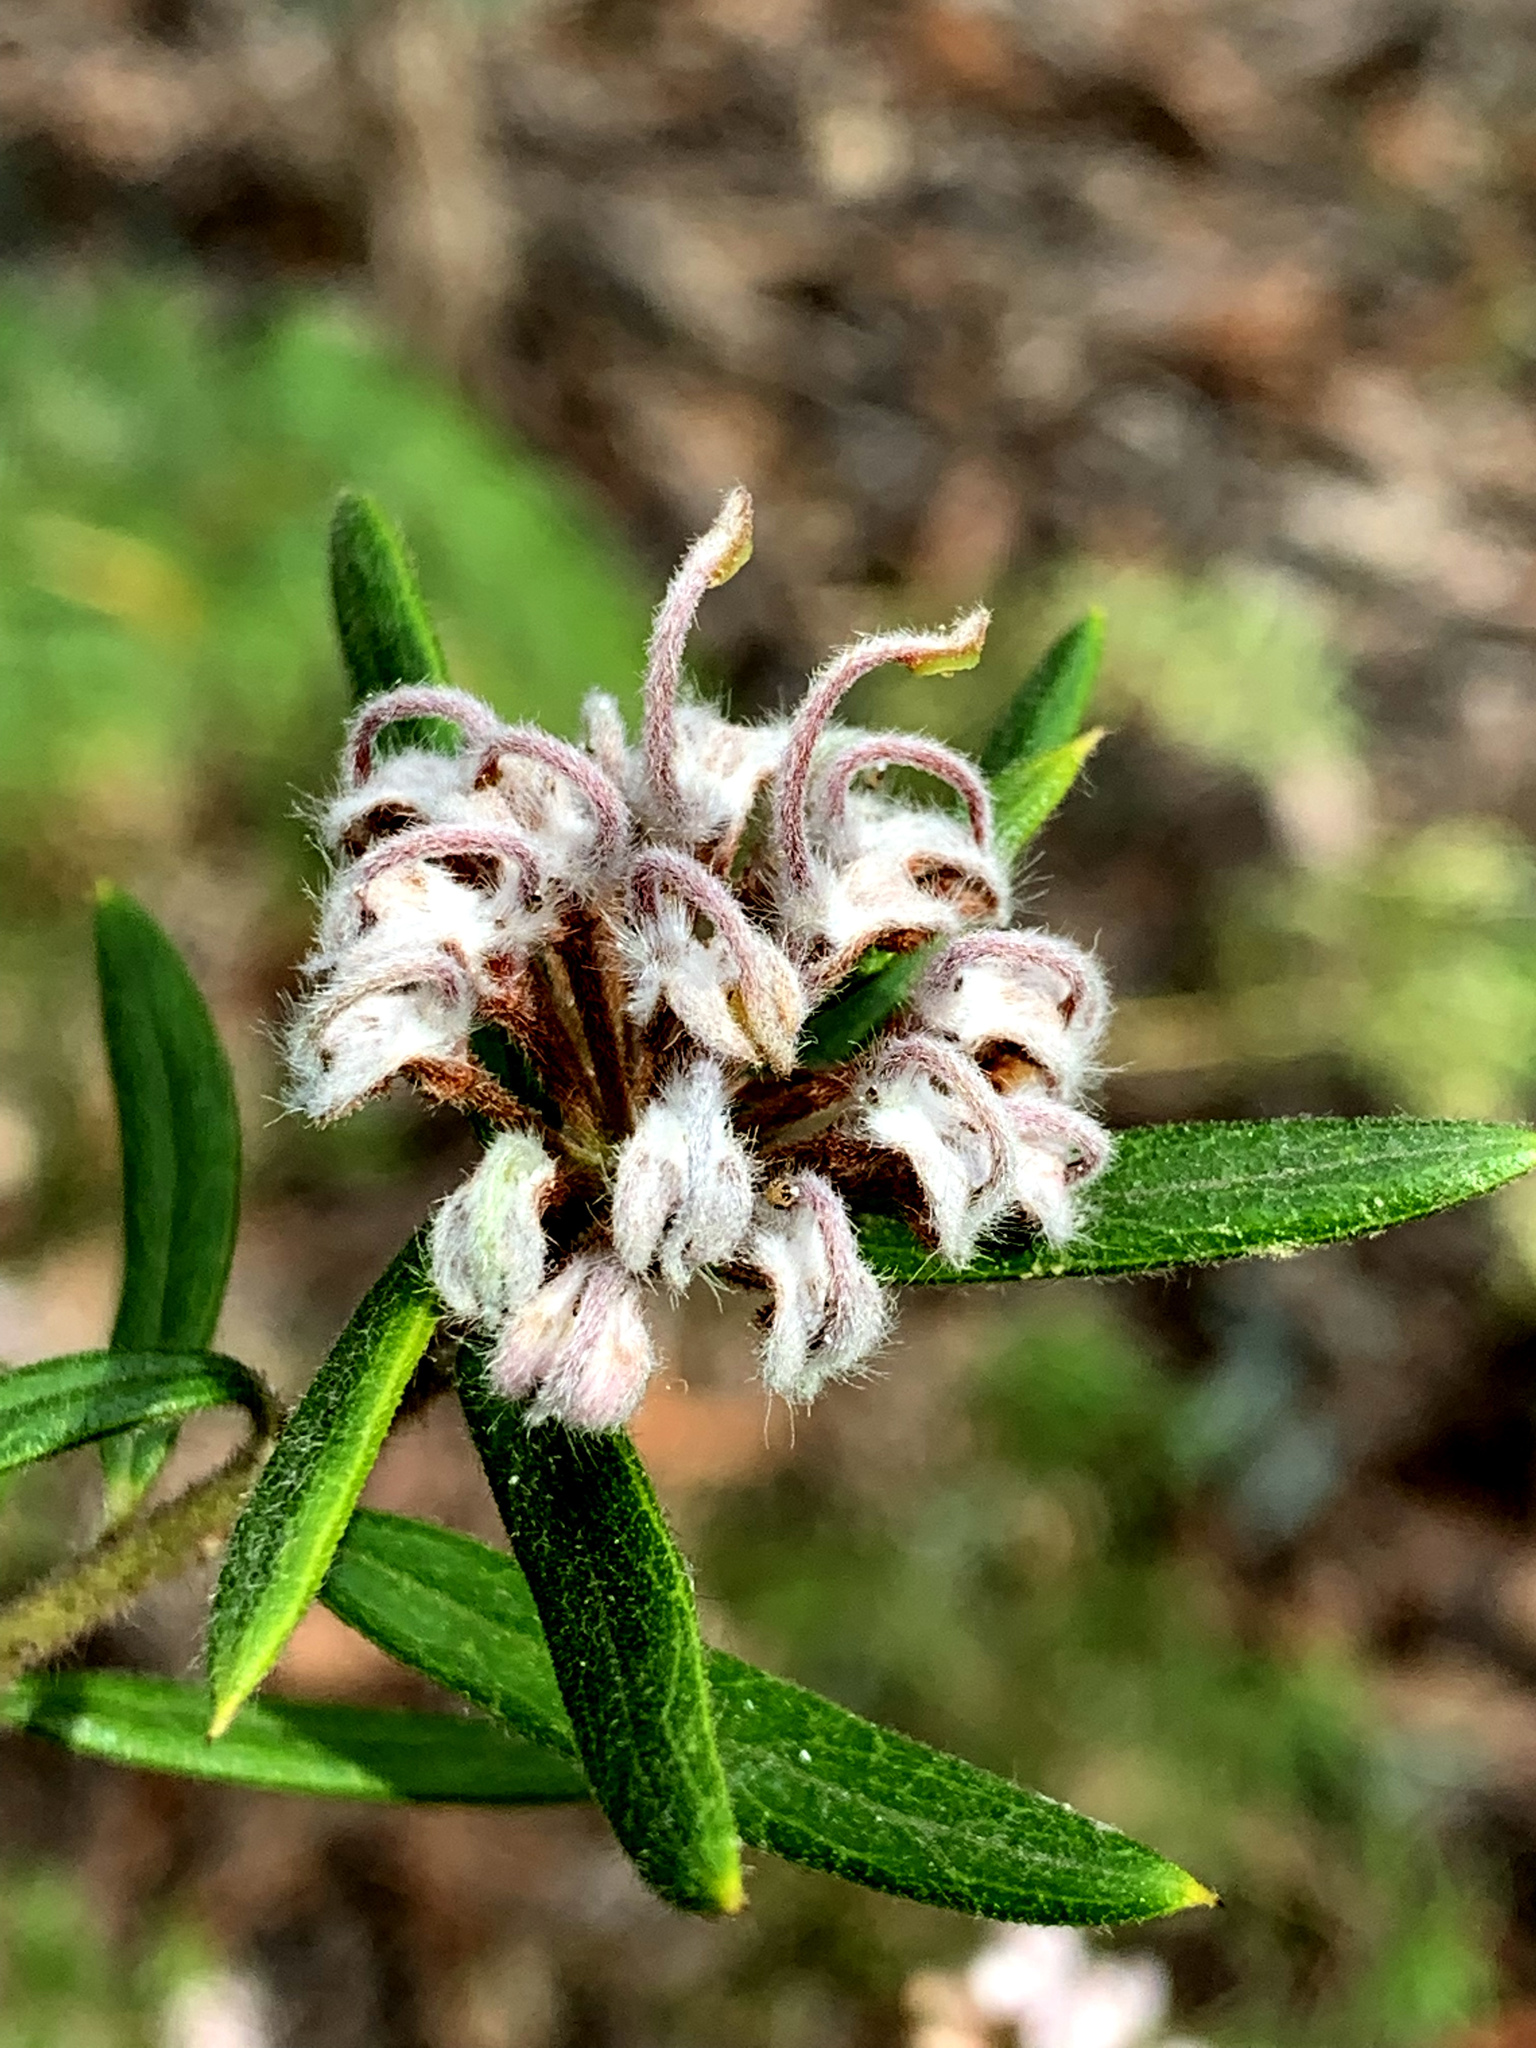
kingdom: Plantae
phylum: Tracheophyta
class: Magnoliopsida
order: Proteales
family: Proteaceae
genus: Grevillea
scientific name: Grevillea phylicoides
